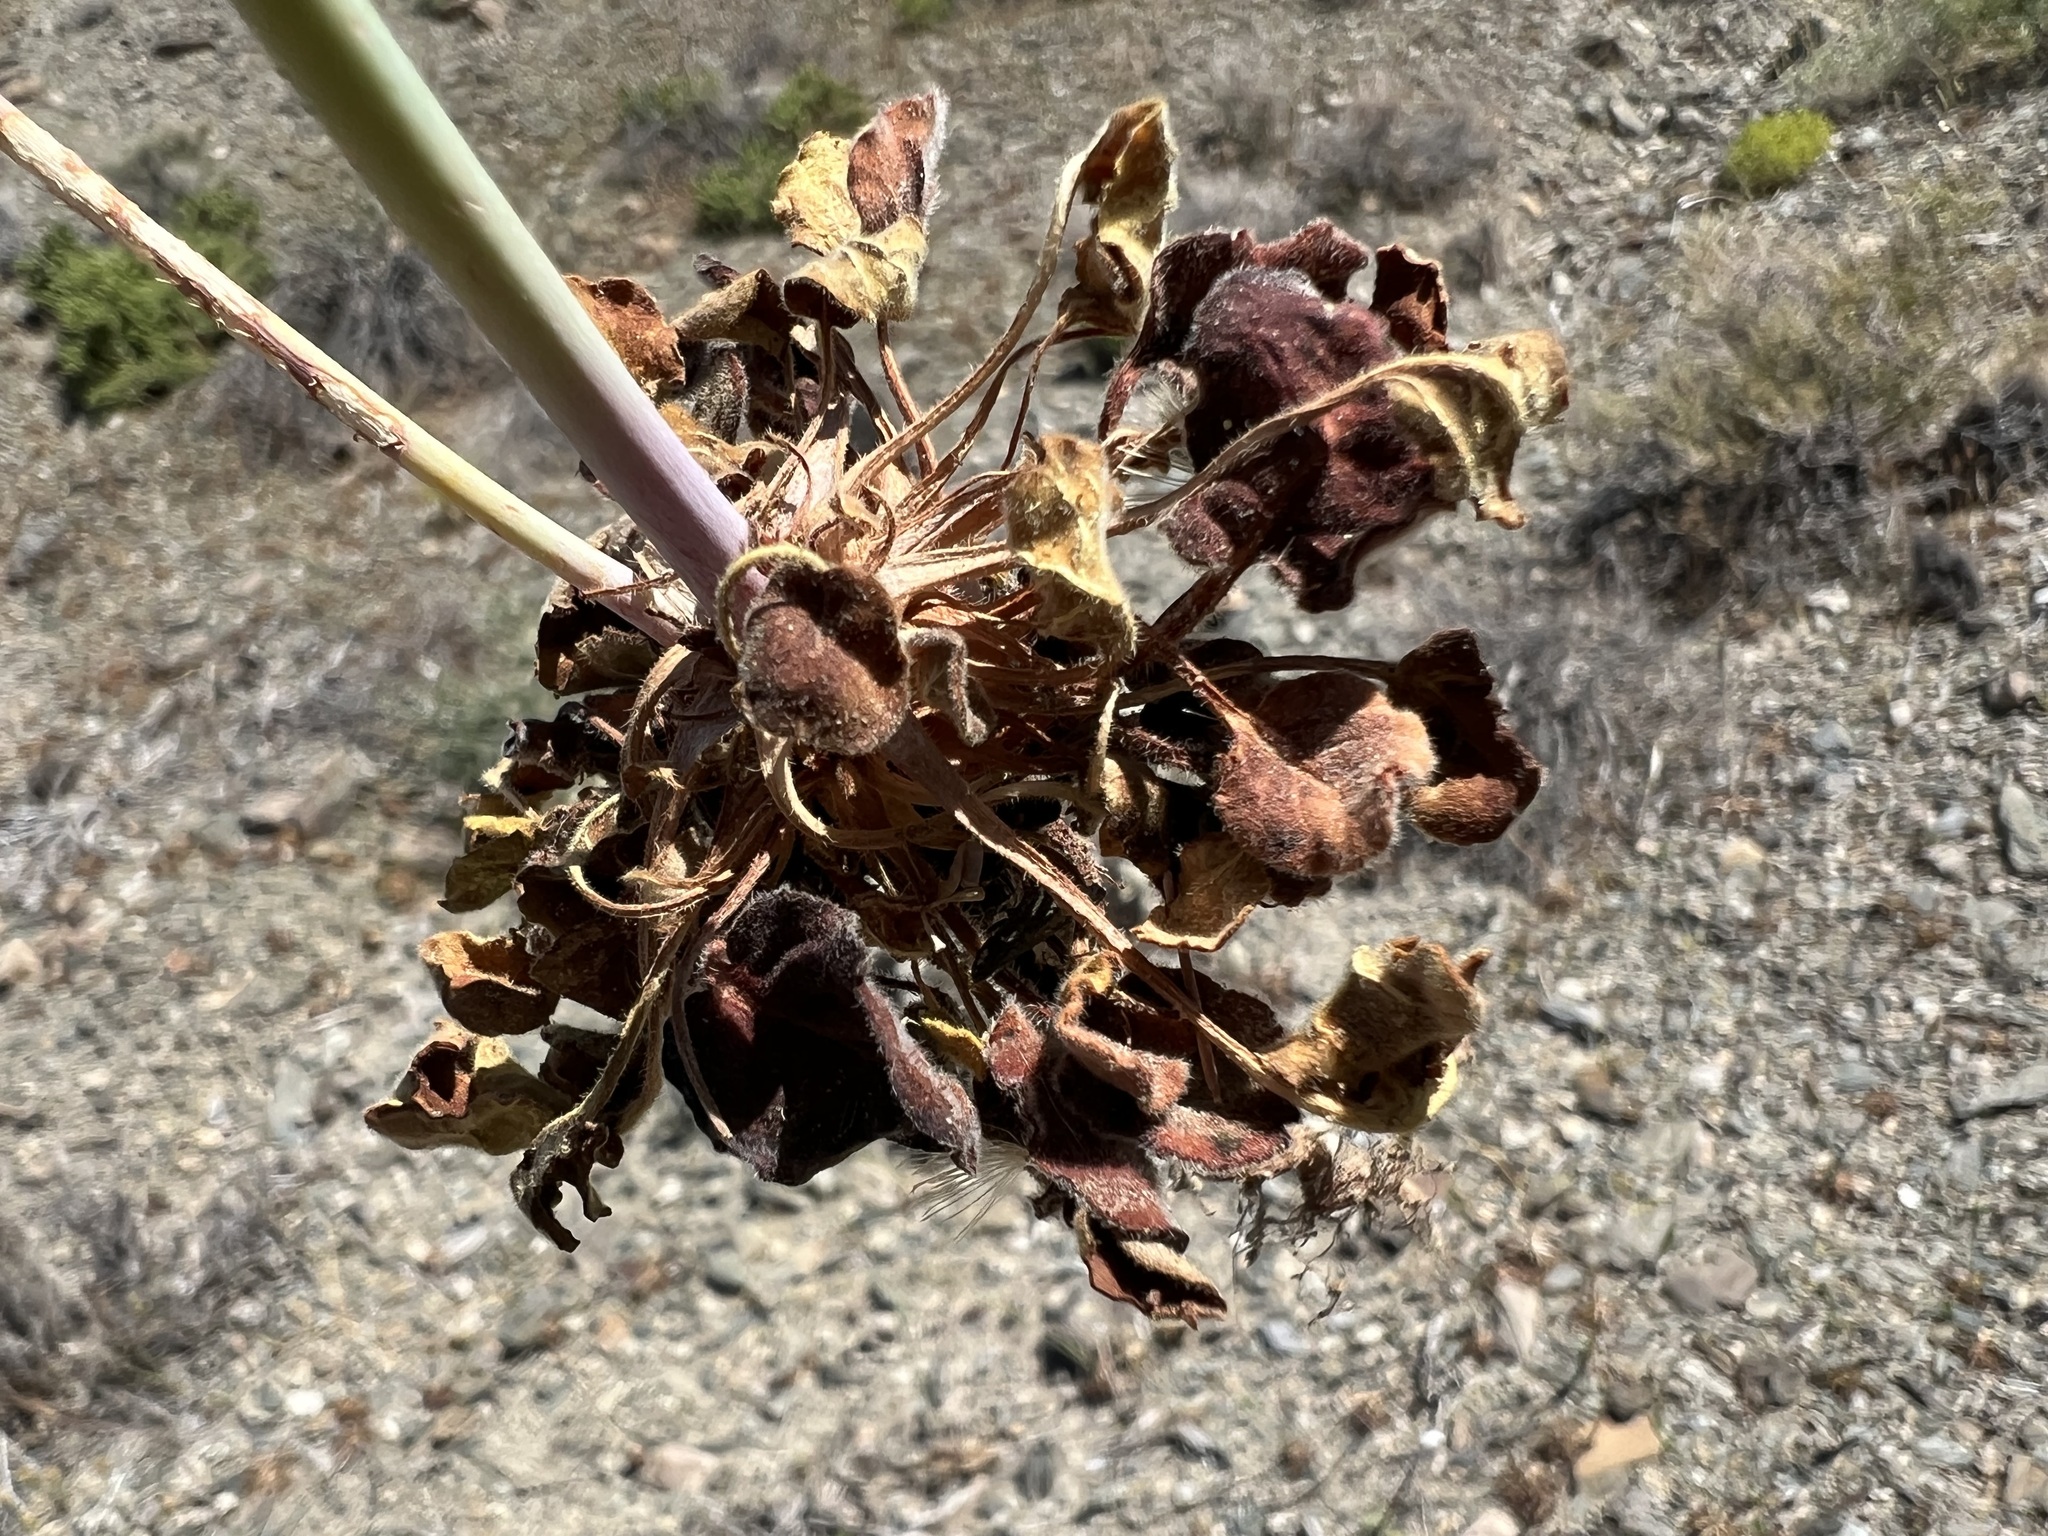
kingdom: Plantae
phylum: Tracheophyta
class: Magnoliopsida
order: Caryophyllales
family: Polygonaceae
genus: Eriogonum
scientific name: Eriogonum inflatum
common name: Desert trumpet
